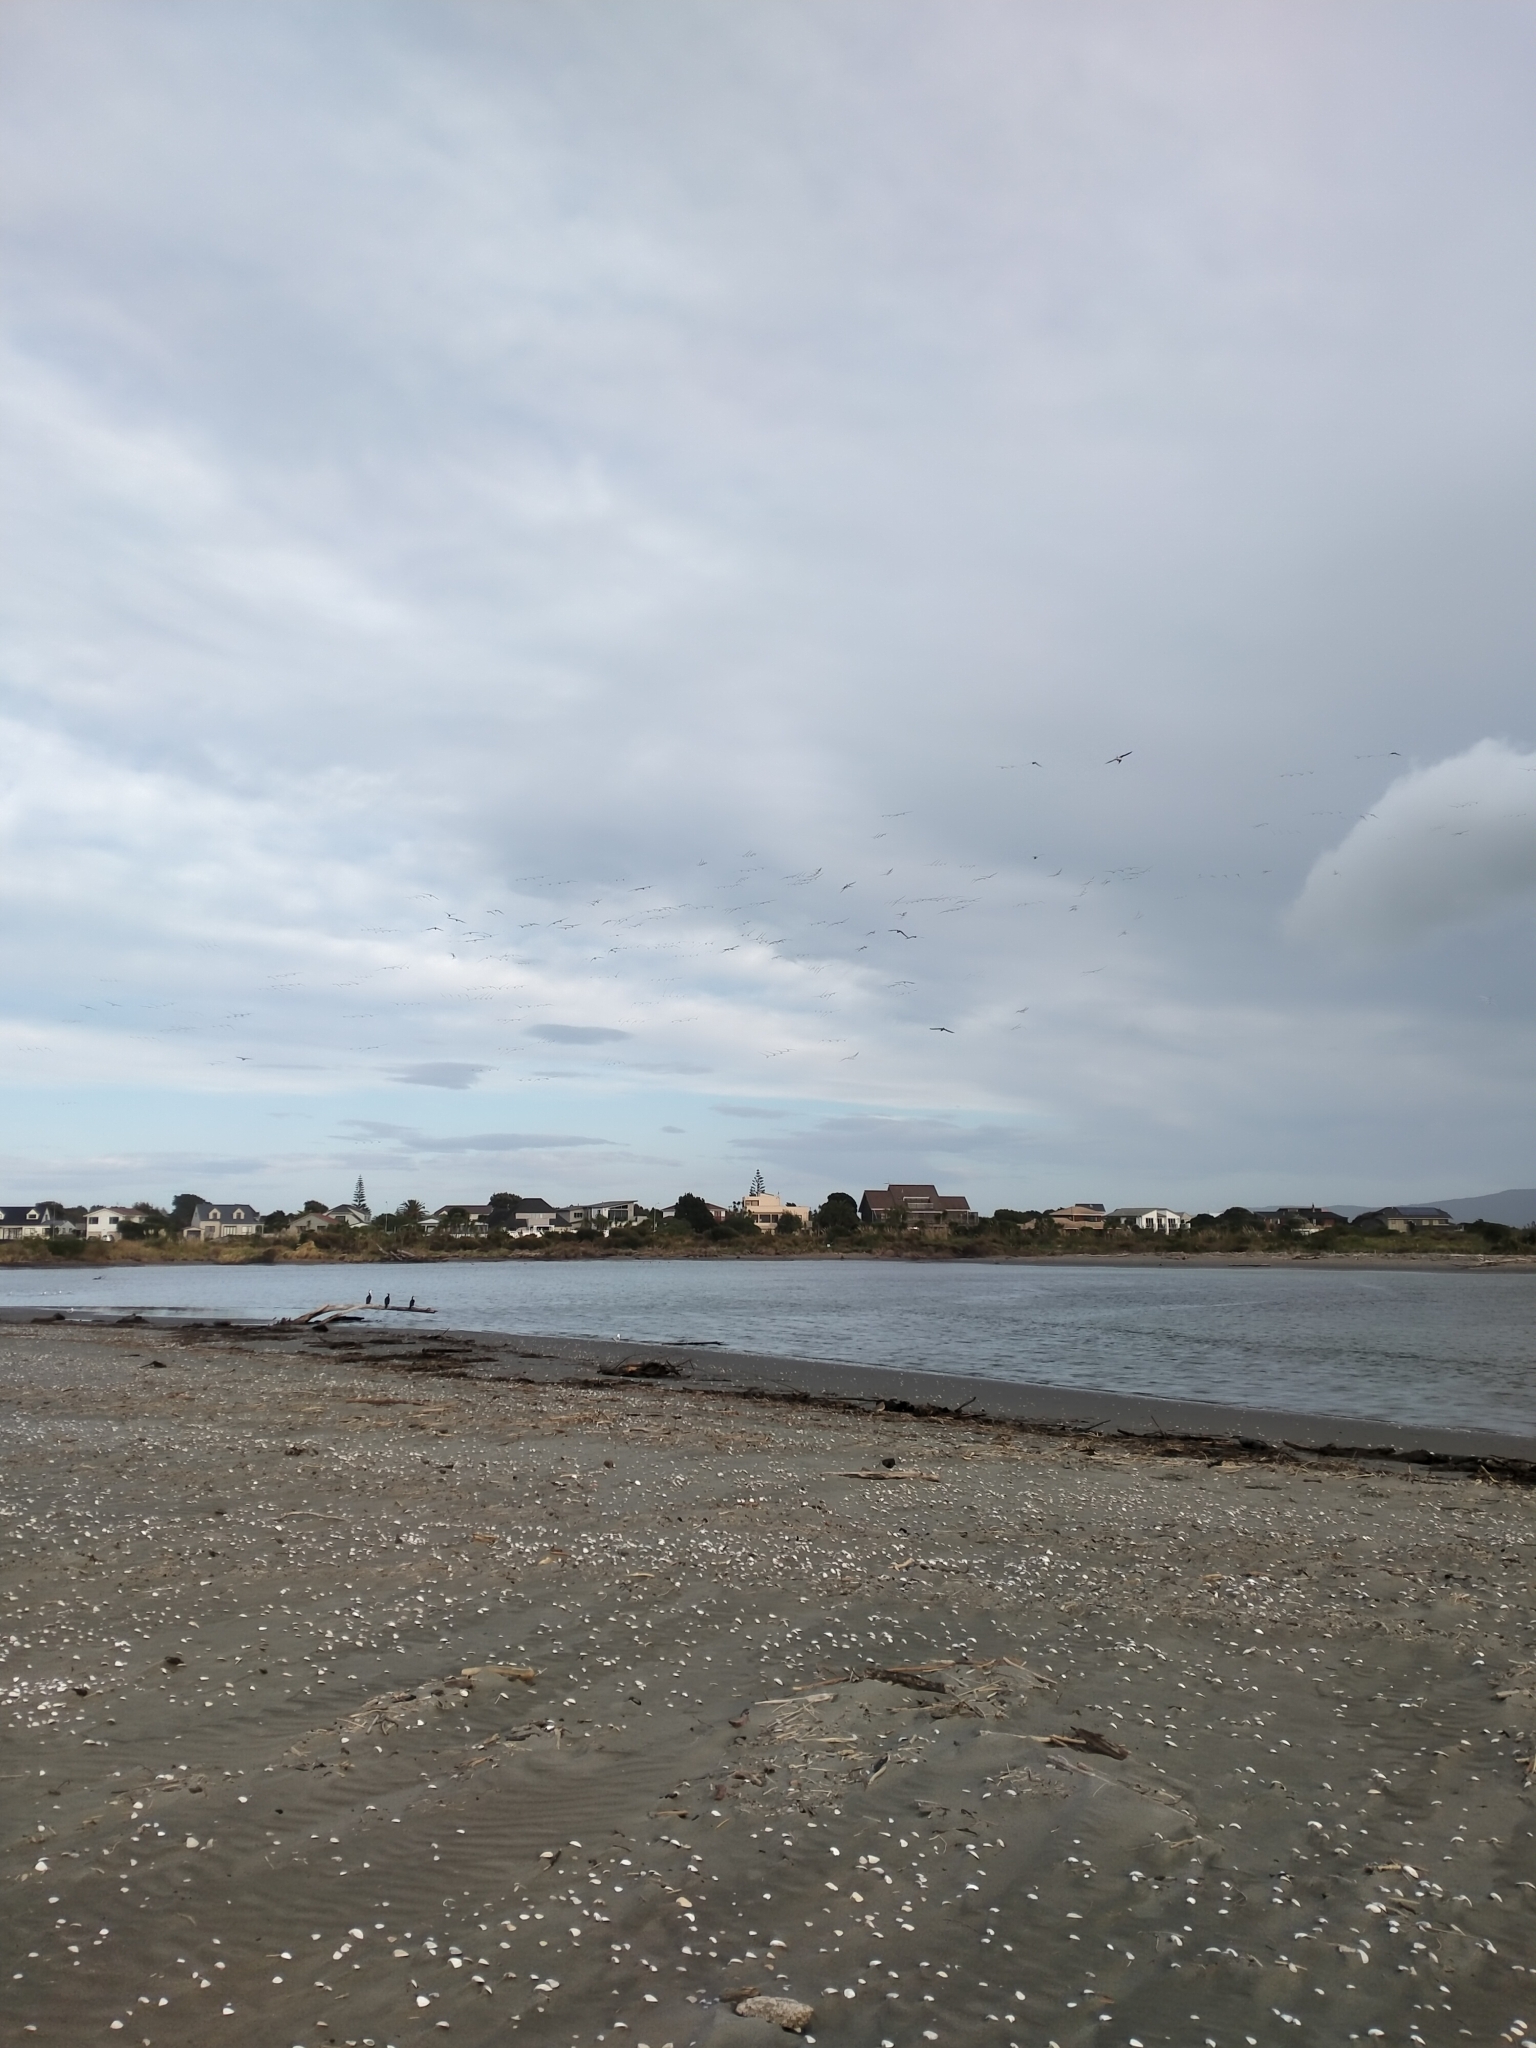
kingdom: Animalia
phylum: Chordata
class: Aves
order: Charadriiformes
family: Laridae
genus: Sterna
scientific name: Sterna striata
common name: White-fronted tern
